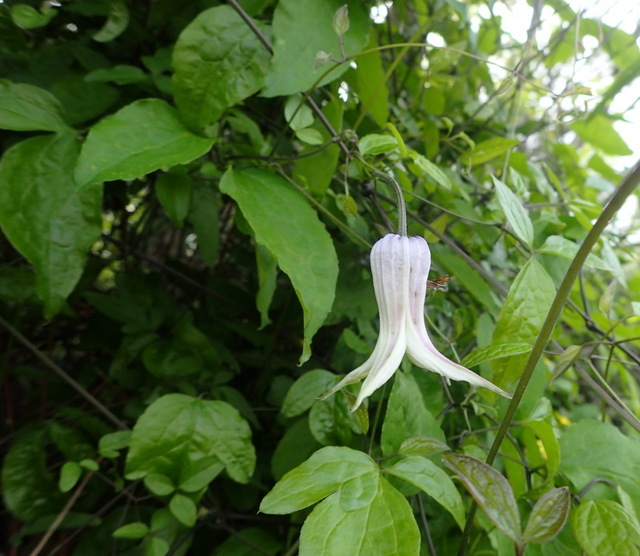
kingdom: Plantae
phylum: Tracheophyta
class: Magnoliopsida
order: Ranunculales
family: Ranunculaceae
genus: Clematis
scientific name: Clematis crispa
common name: Curly clematis
